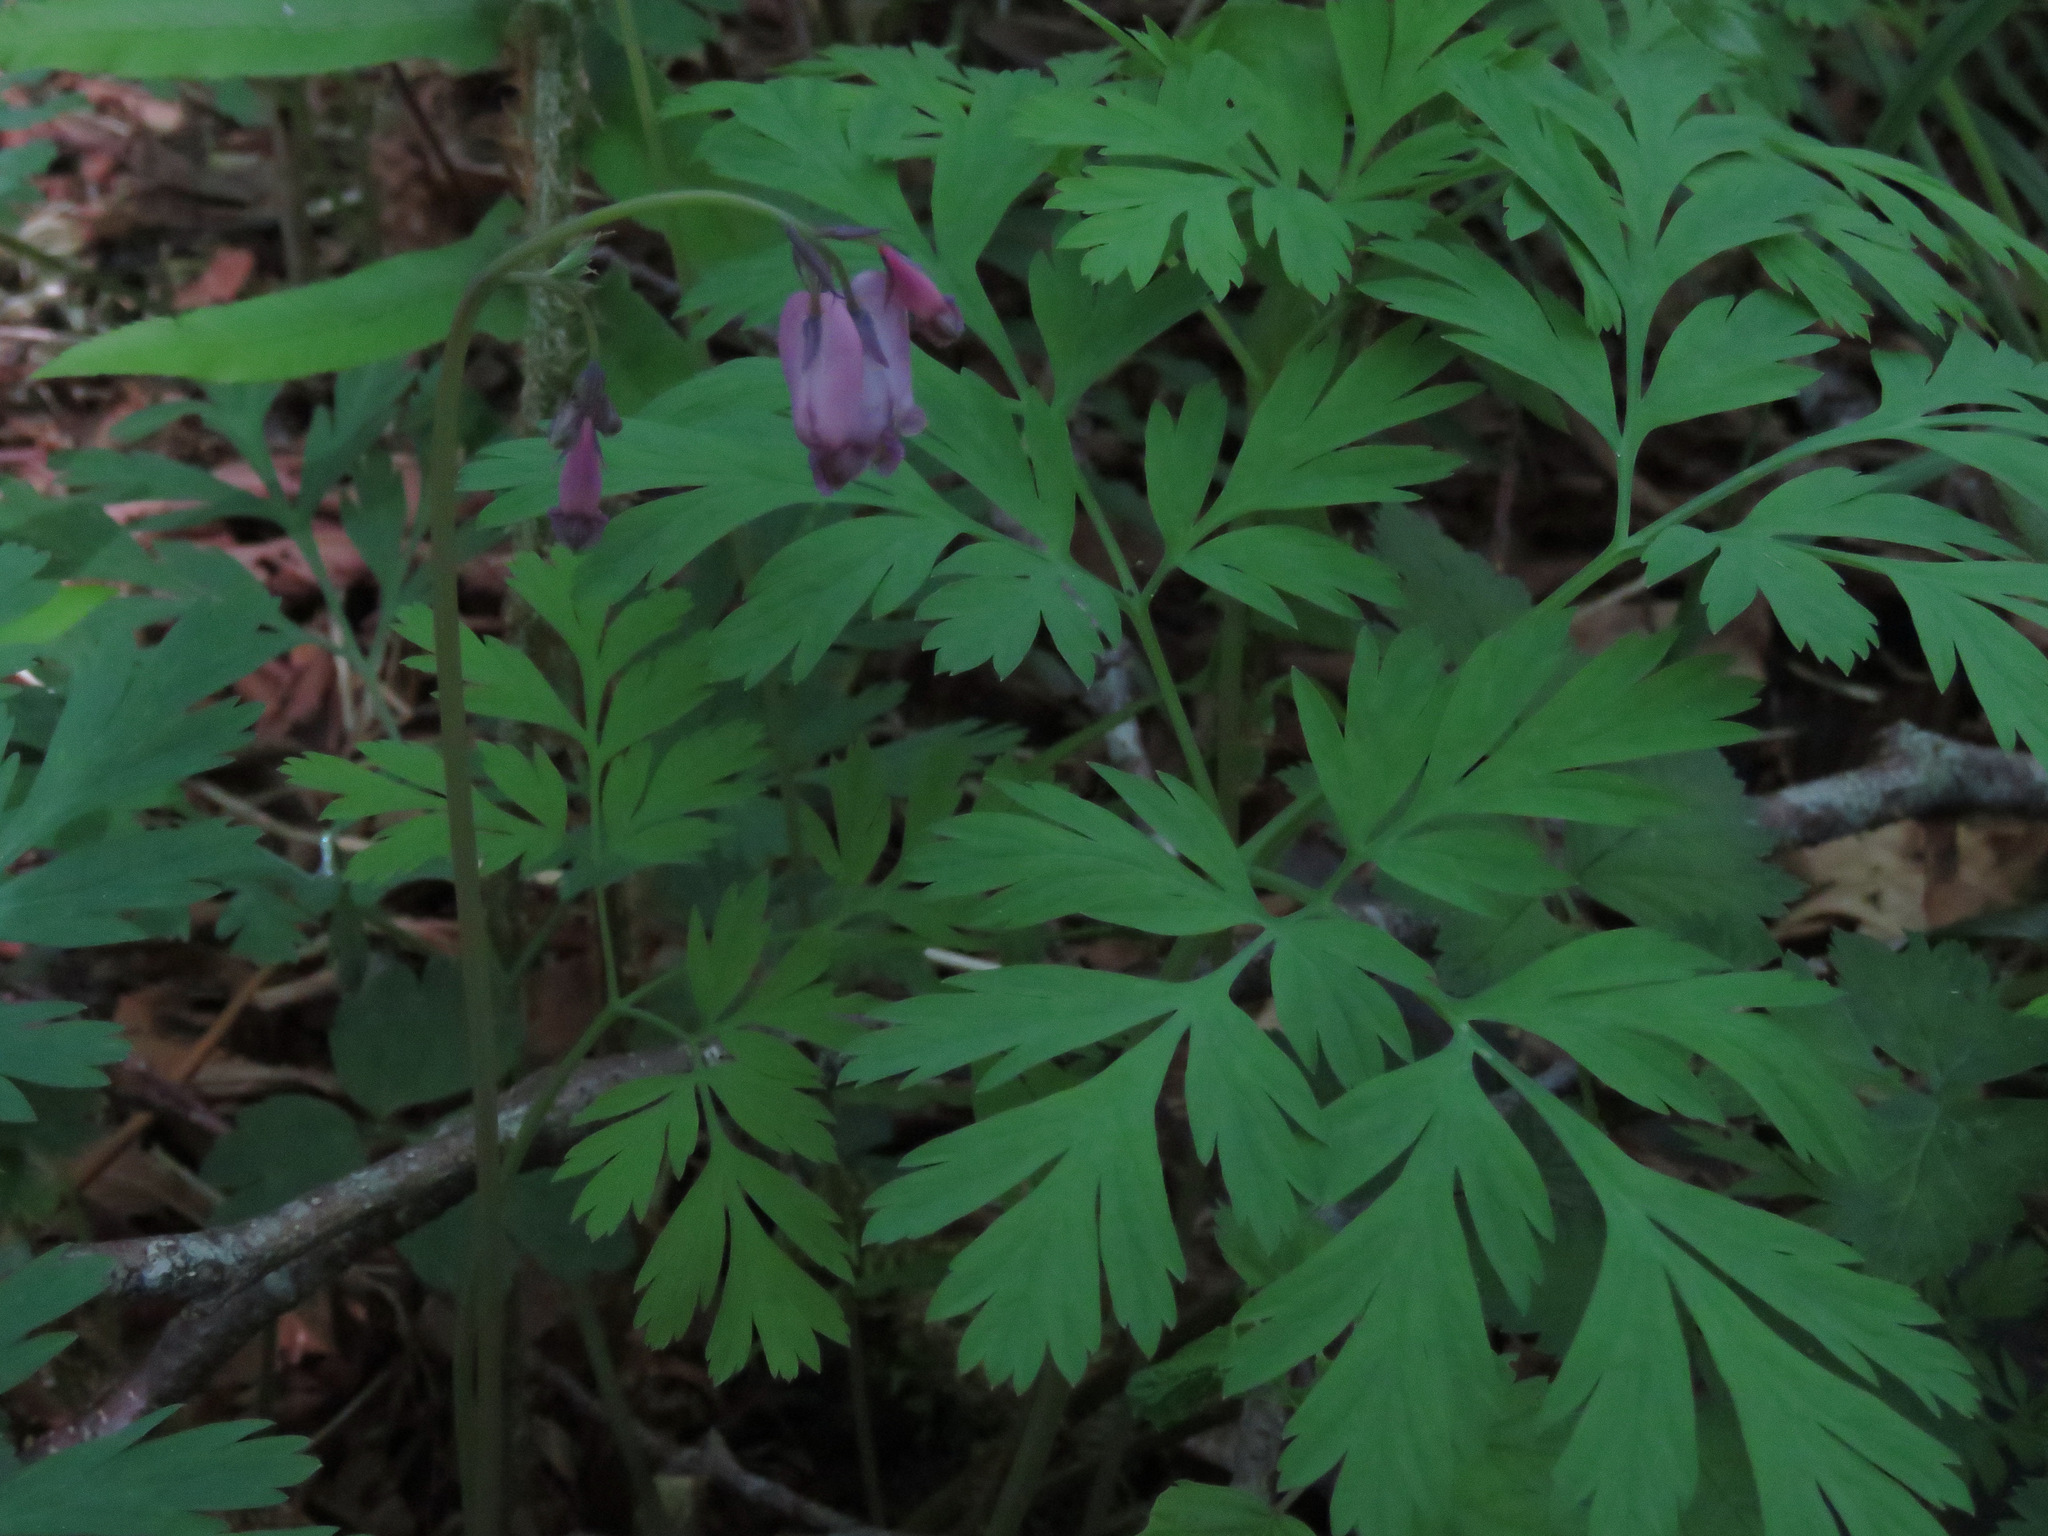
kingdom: Plantae
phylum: Tracheophyta
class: Magnoliopsida
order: Ranunculales
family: Papaveraceae
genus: Dicentra
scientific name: Dicentra formosa
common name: Bleeding-heart
